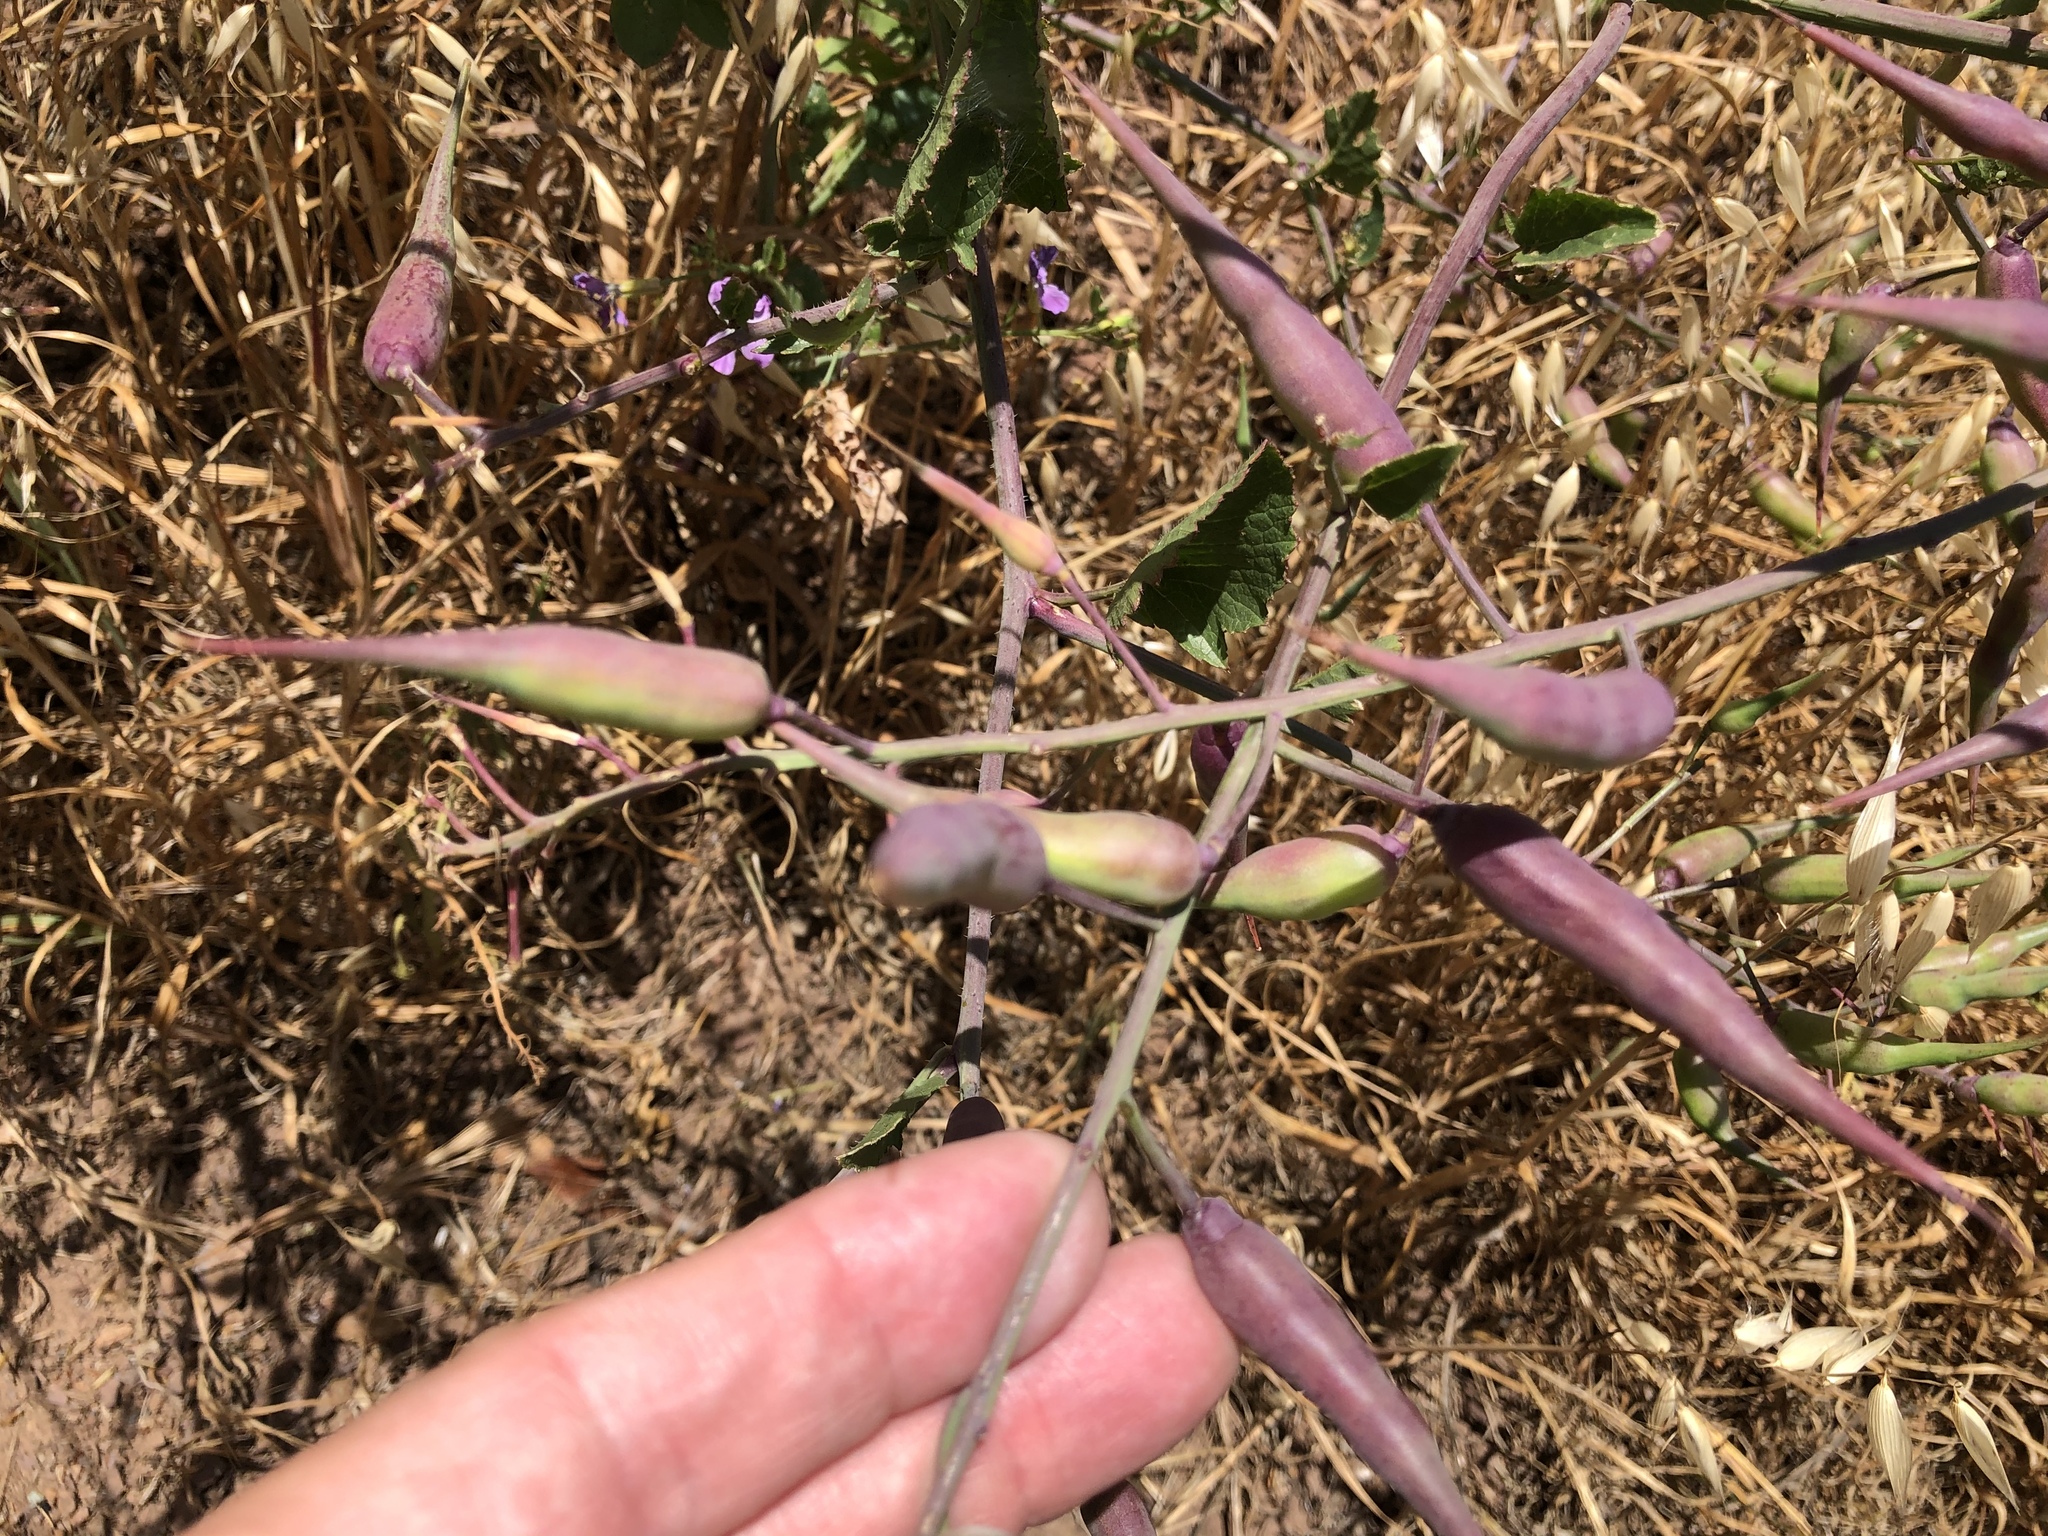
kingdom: Plantae
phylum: Tracheophyta
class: Magnoliopsida
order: Brassicales
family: Brassicaceae
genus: Raphanus
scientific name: Raphanus sativus
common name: Cultivated radish
